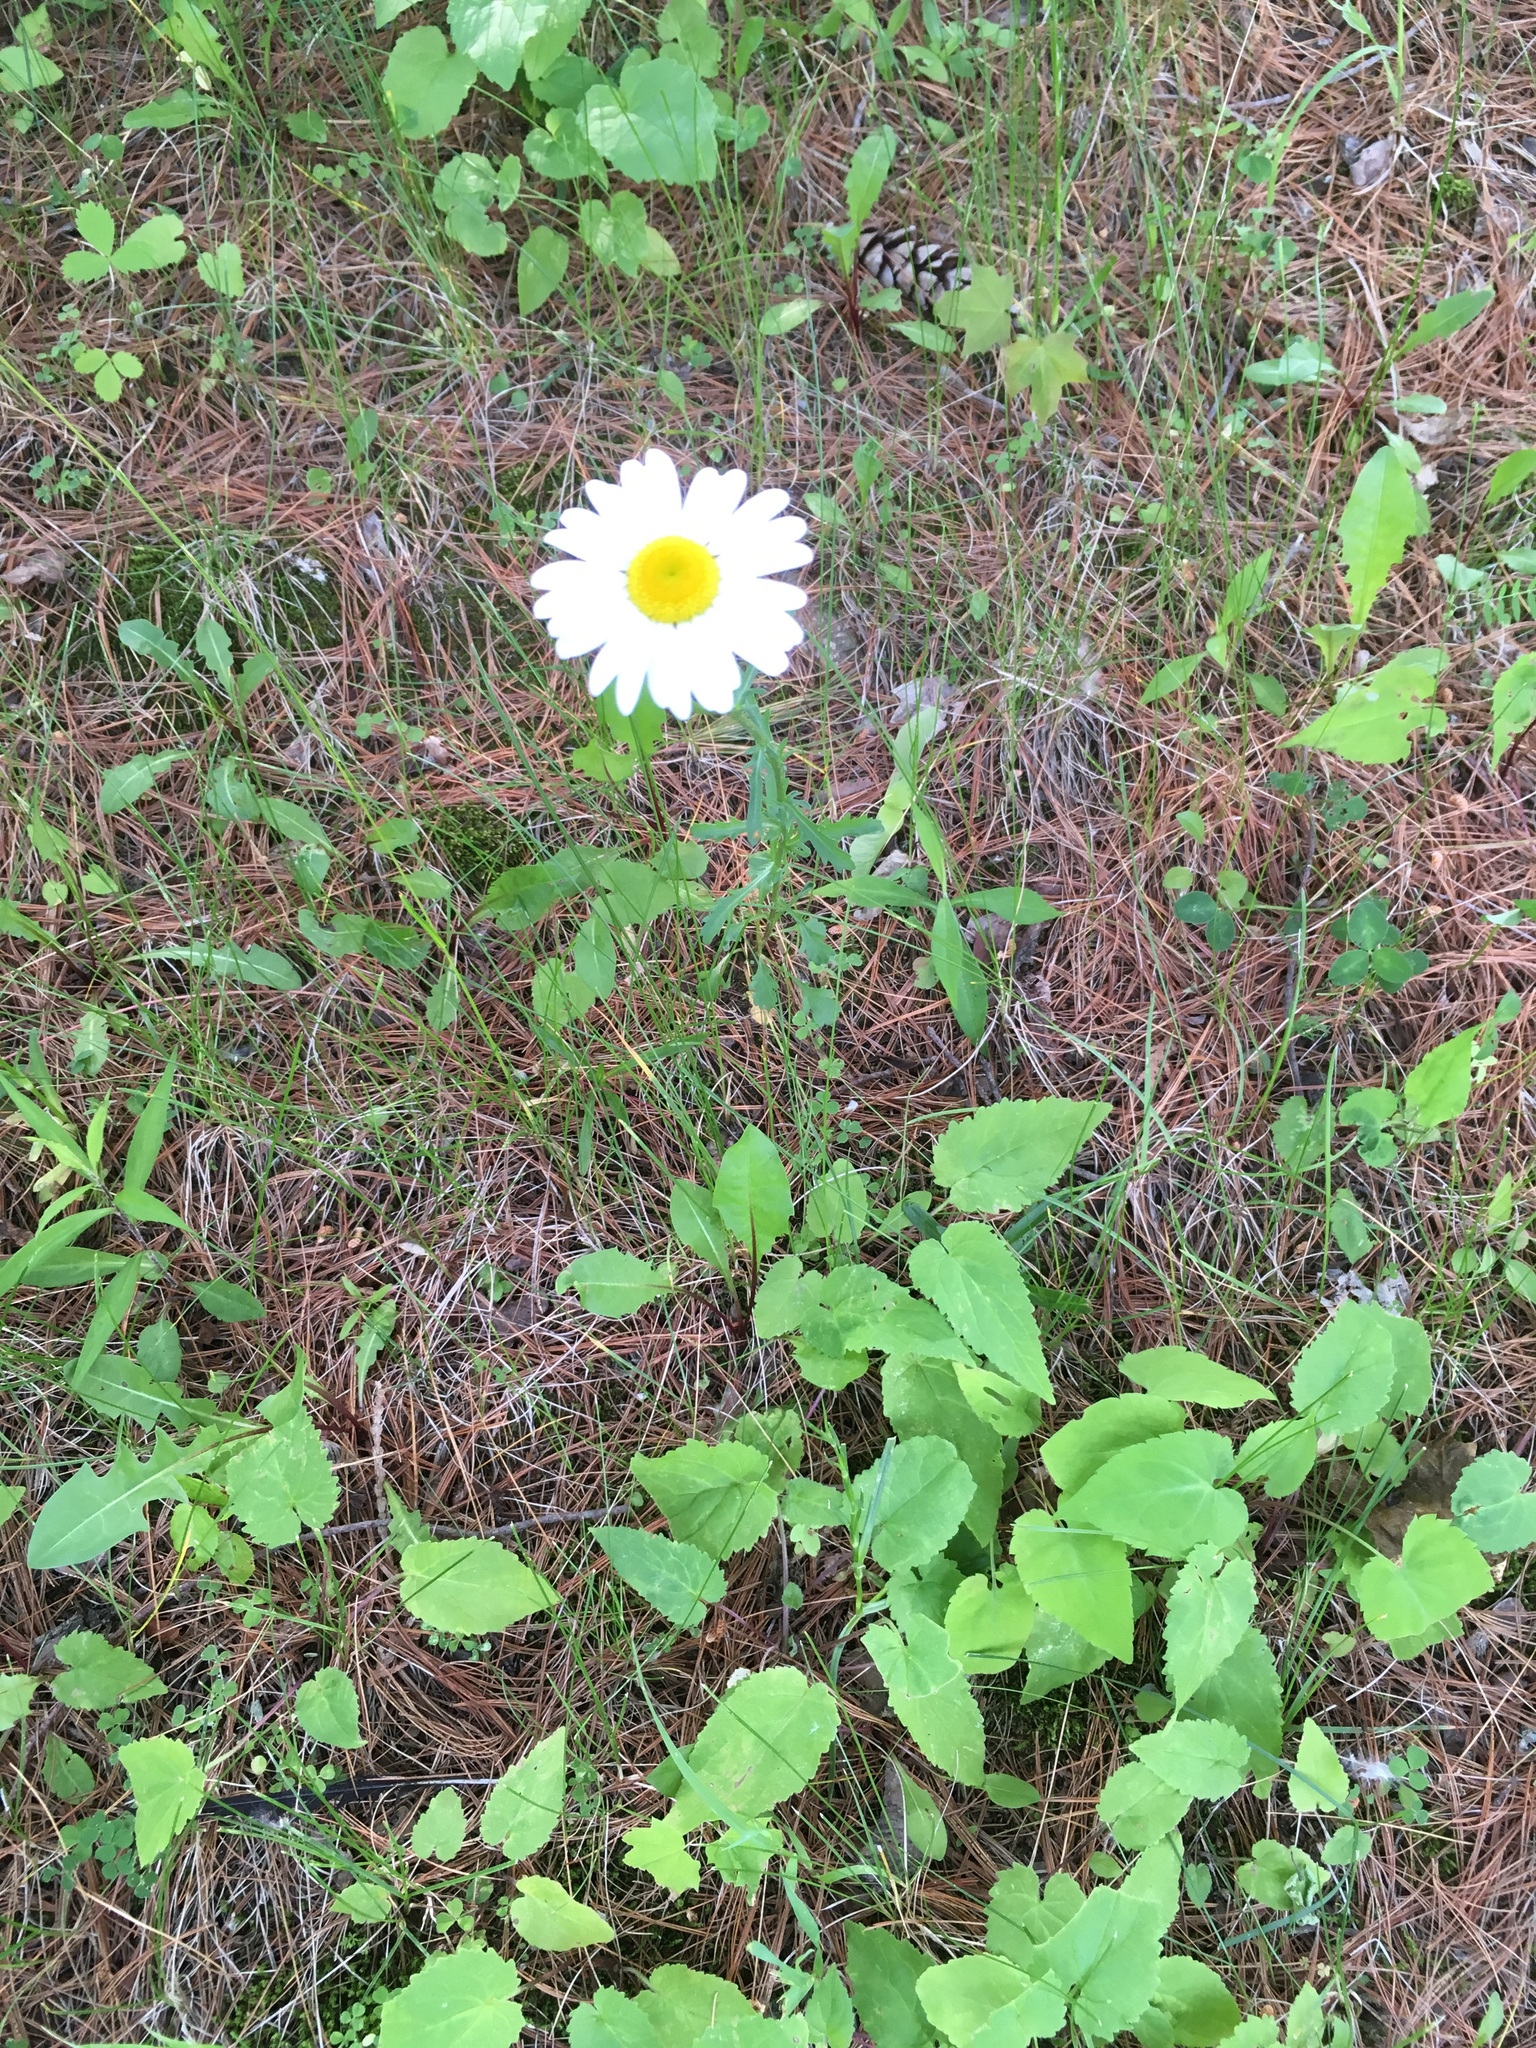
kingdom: Plantae
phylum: Tracheophyta
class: Magnoliopsida
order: Asterales
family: Asteraceae
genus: Leucanthemum
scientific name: Leucanthemum vulgare
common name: Oxeye daisy
